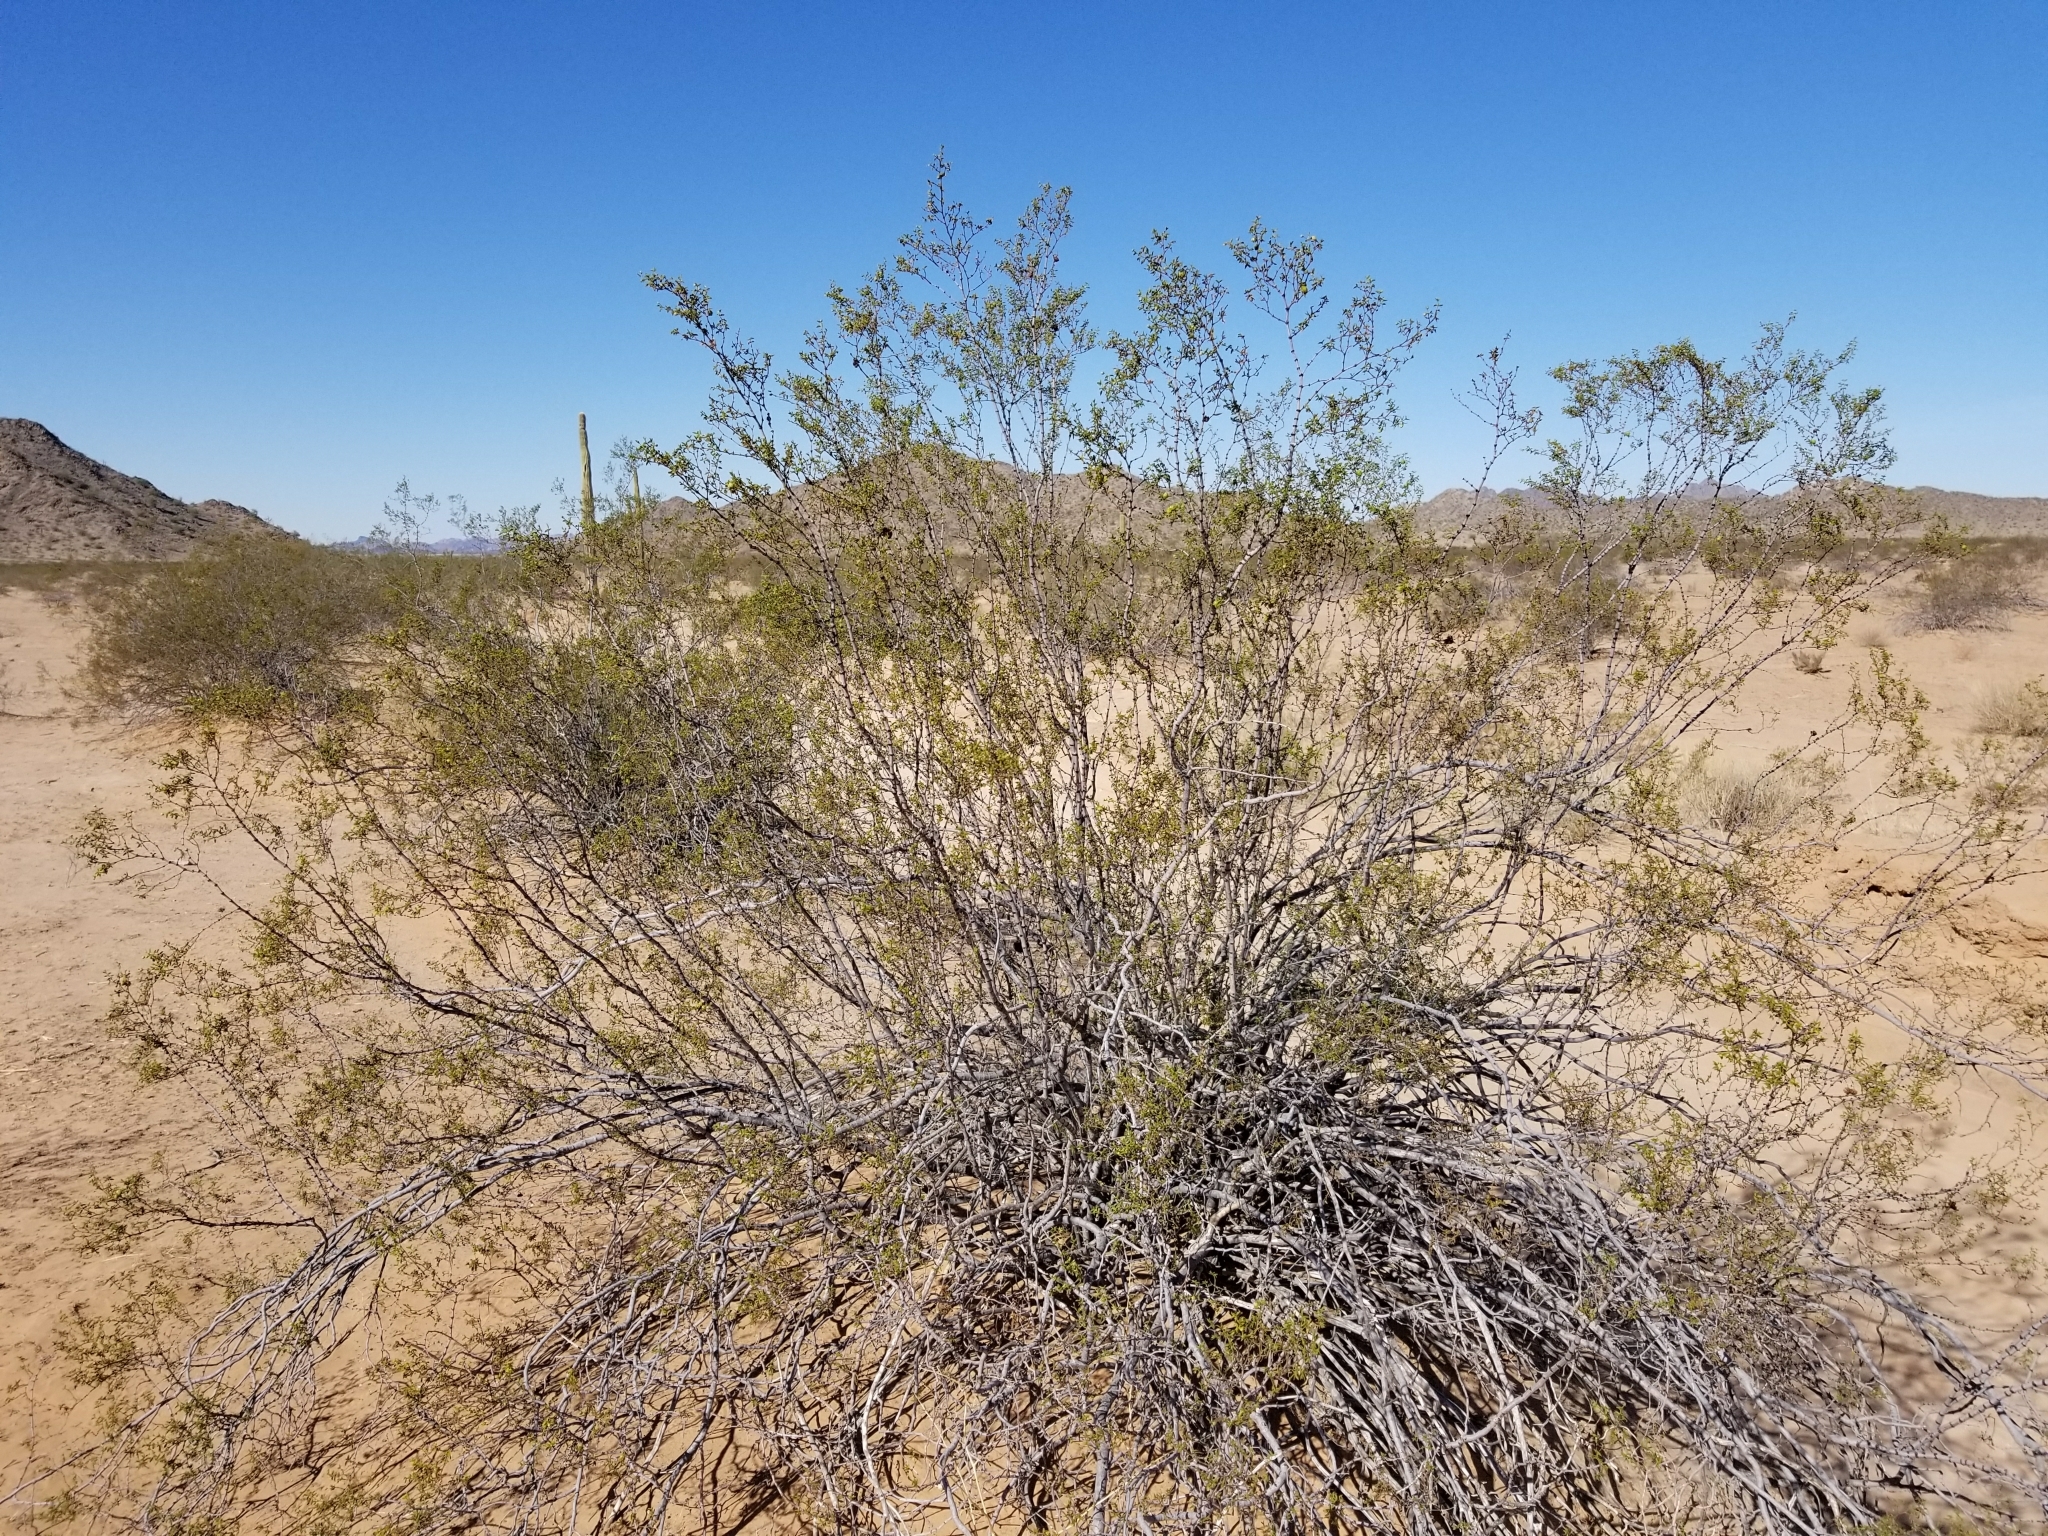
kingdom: Plantae
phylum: Tracheophyta
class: Magnoliopsida
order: Zygophyllales
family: Zygophyllaceae
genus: Larrea
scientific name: Larrea tridentata
